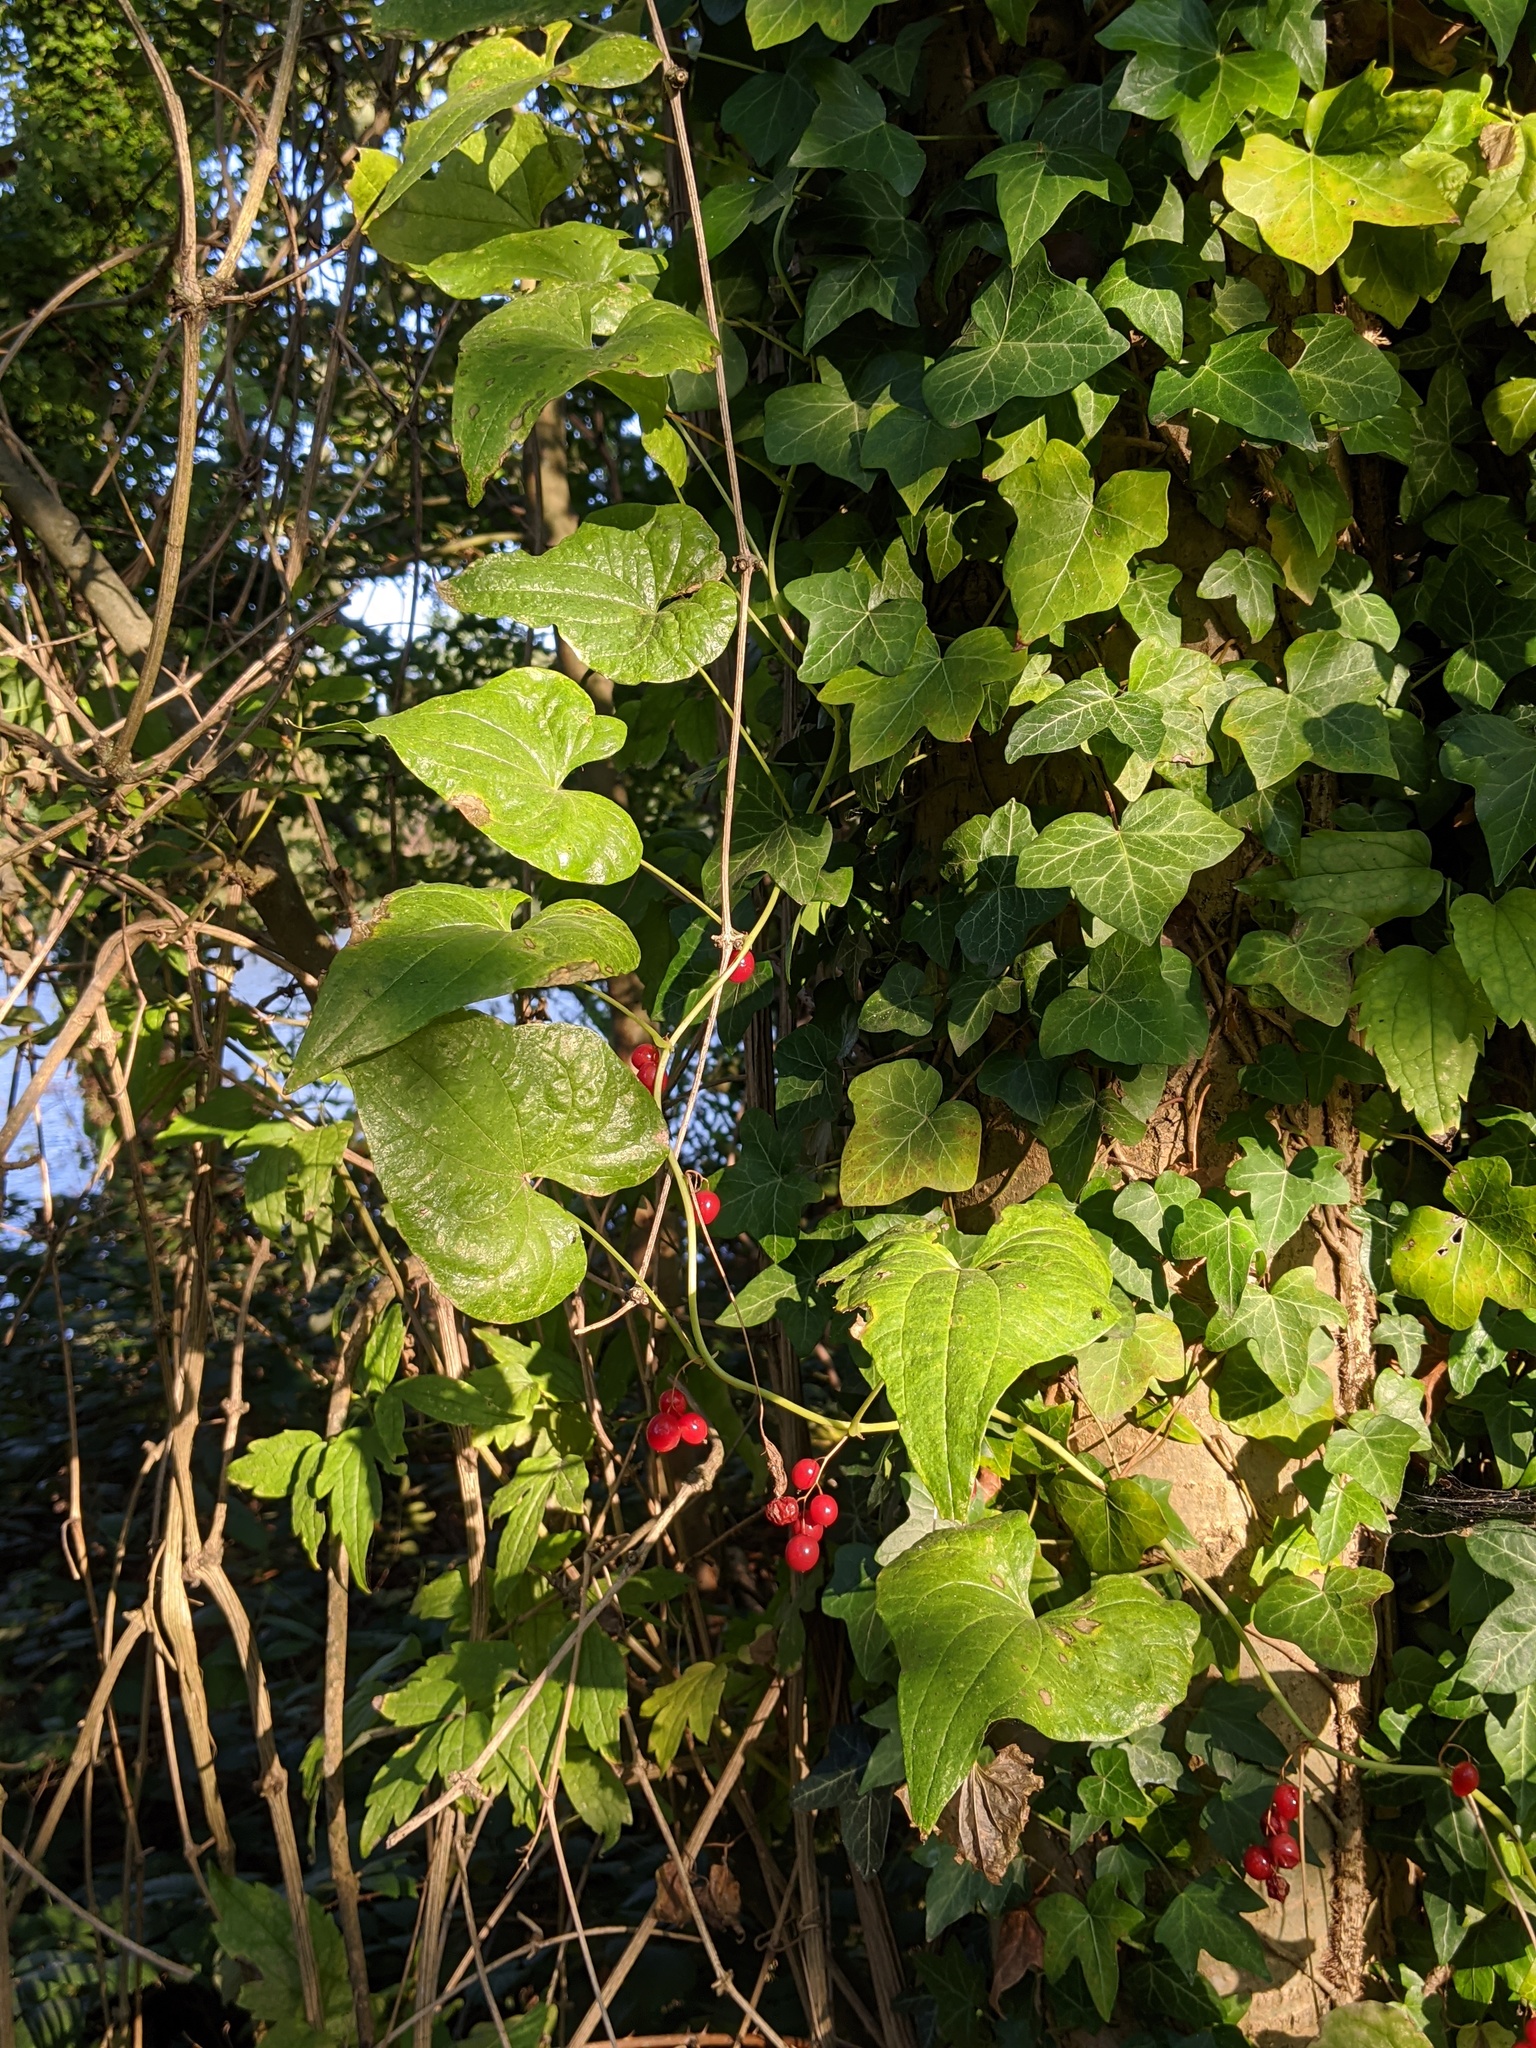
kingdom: Plantae
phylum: Tracheophyta
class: Liliopsida
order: Dioscoreales
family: Dioscoreaceae
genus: Dioscorea
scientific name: Dioscorea communis
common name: Black-bindweed
